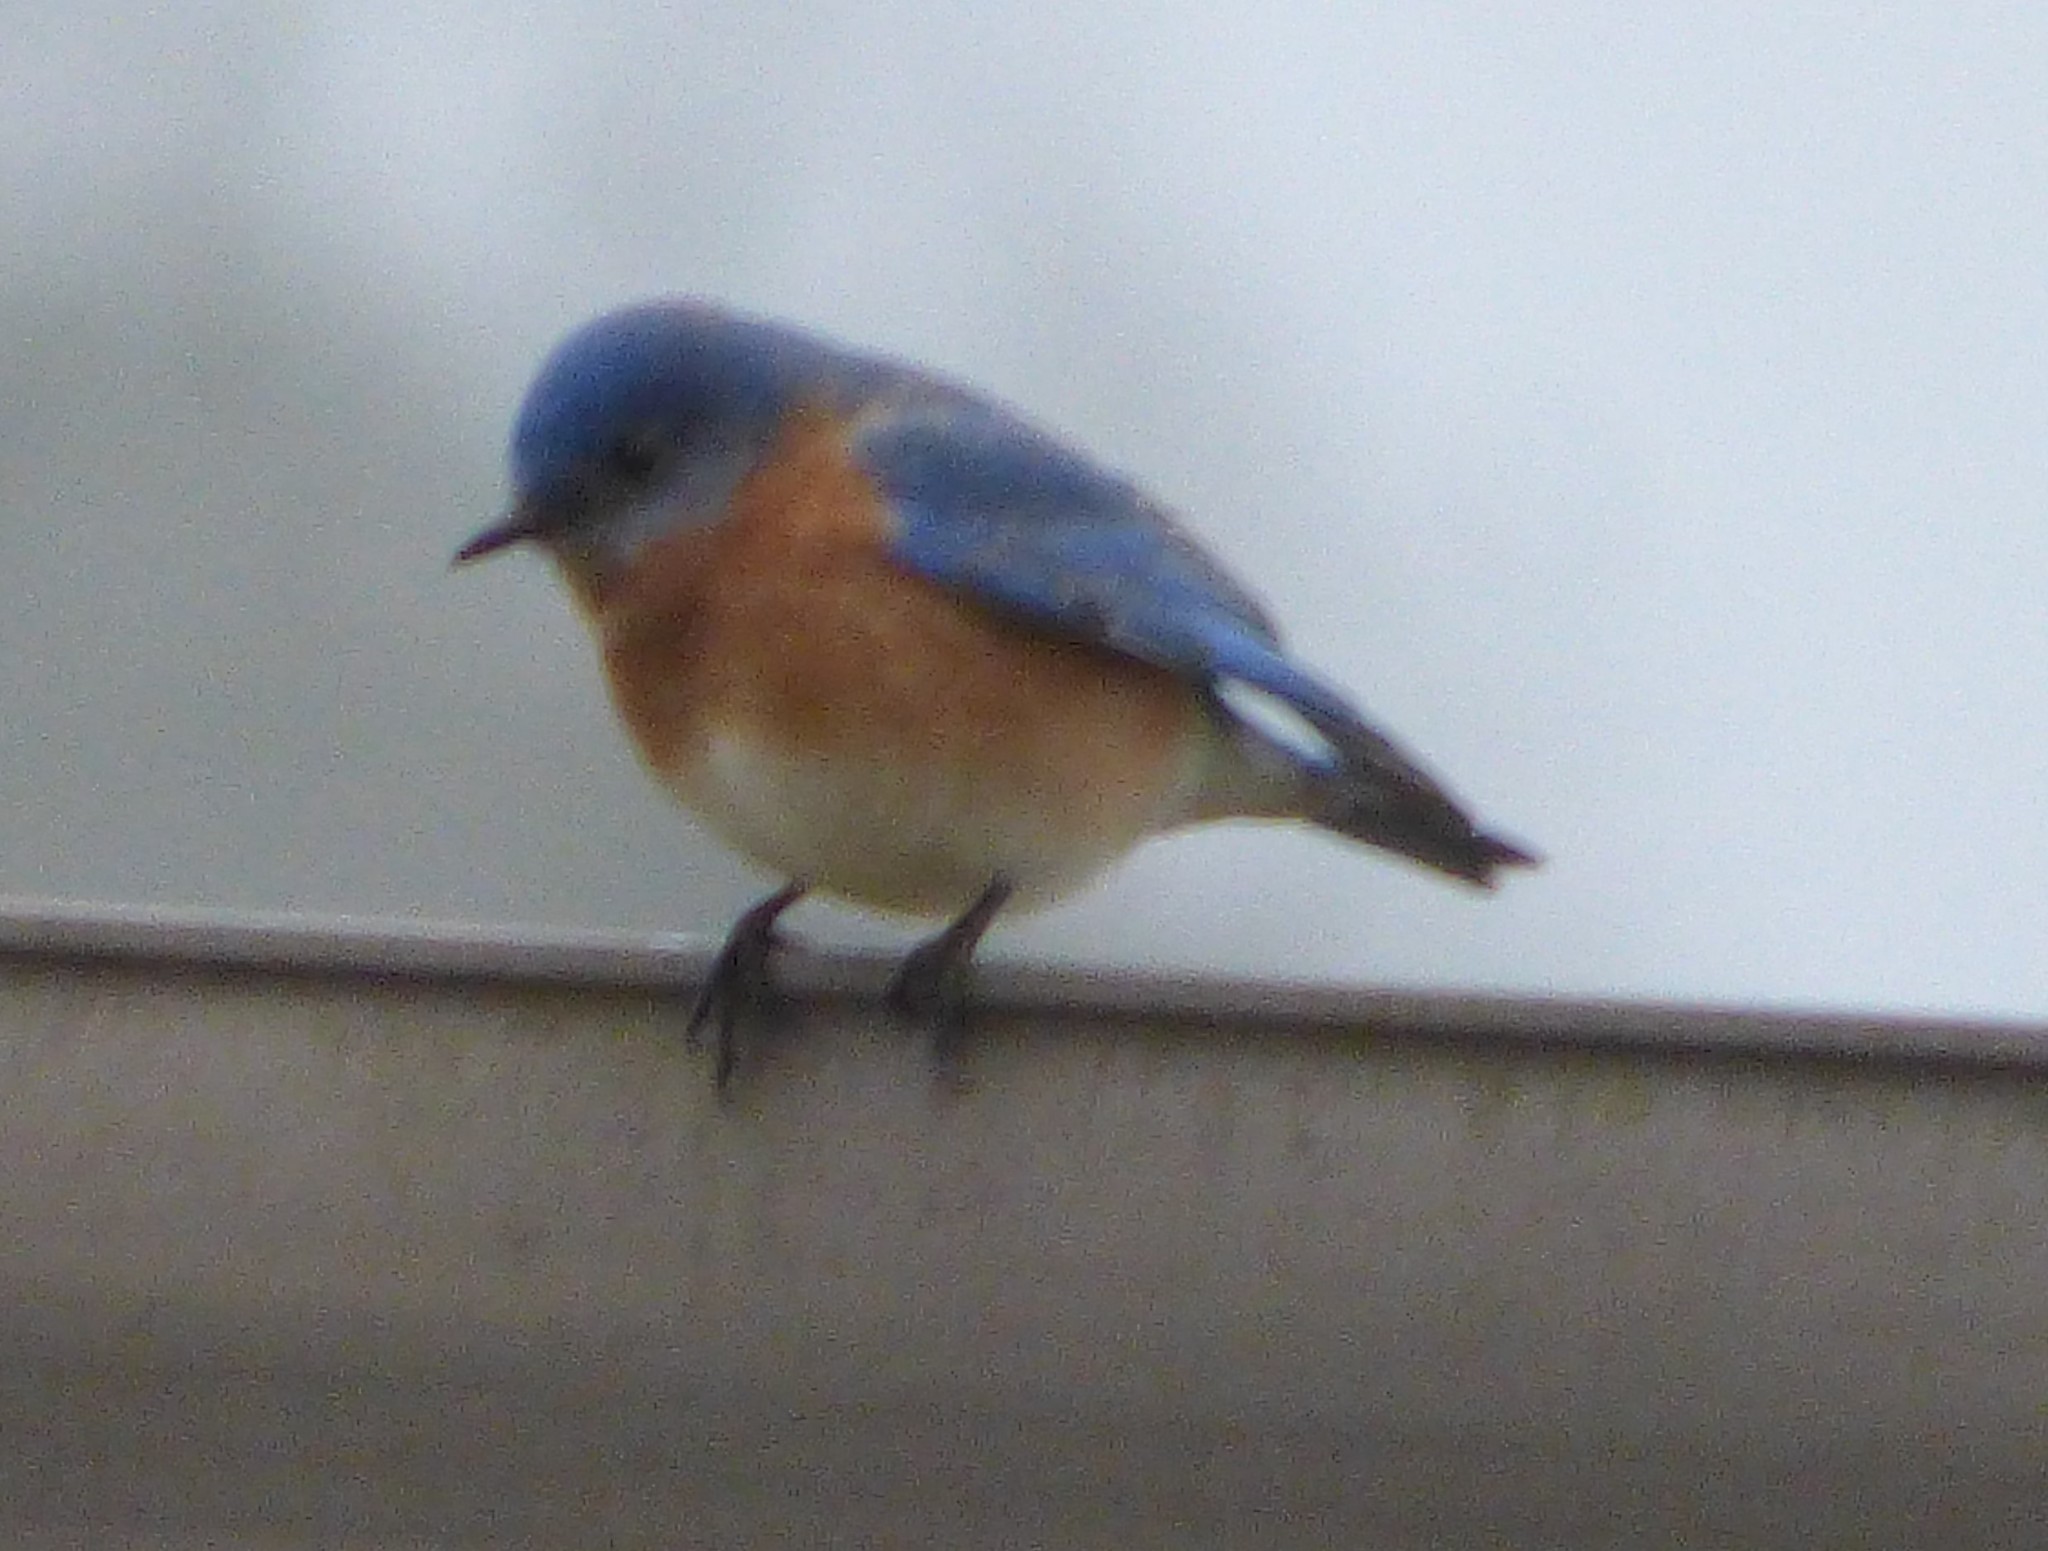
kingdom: Animalia
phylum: Chordata
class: Aves
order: Passeriformes
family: Turdidae
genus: Sialia
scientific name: Sialia sialis
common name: Eastern bluebird
